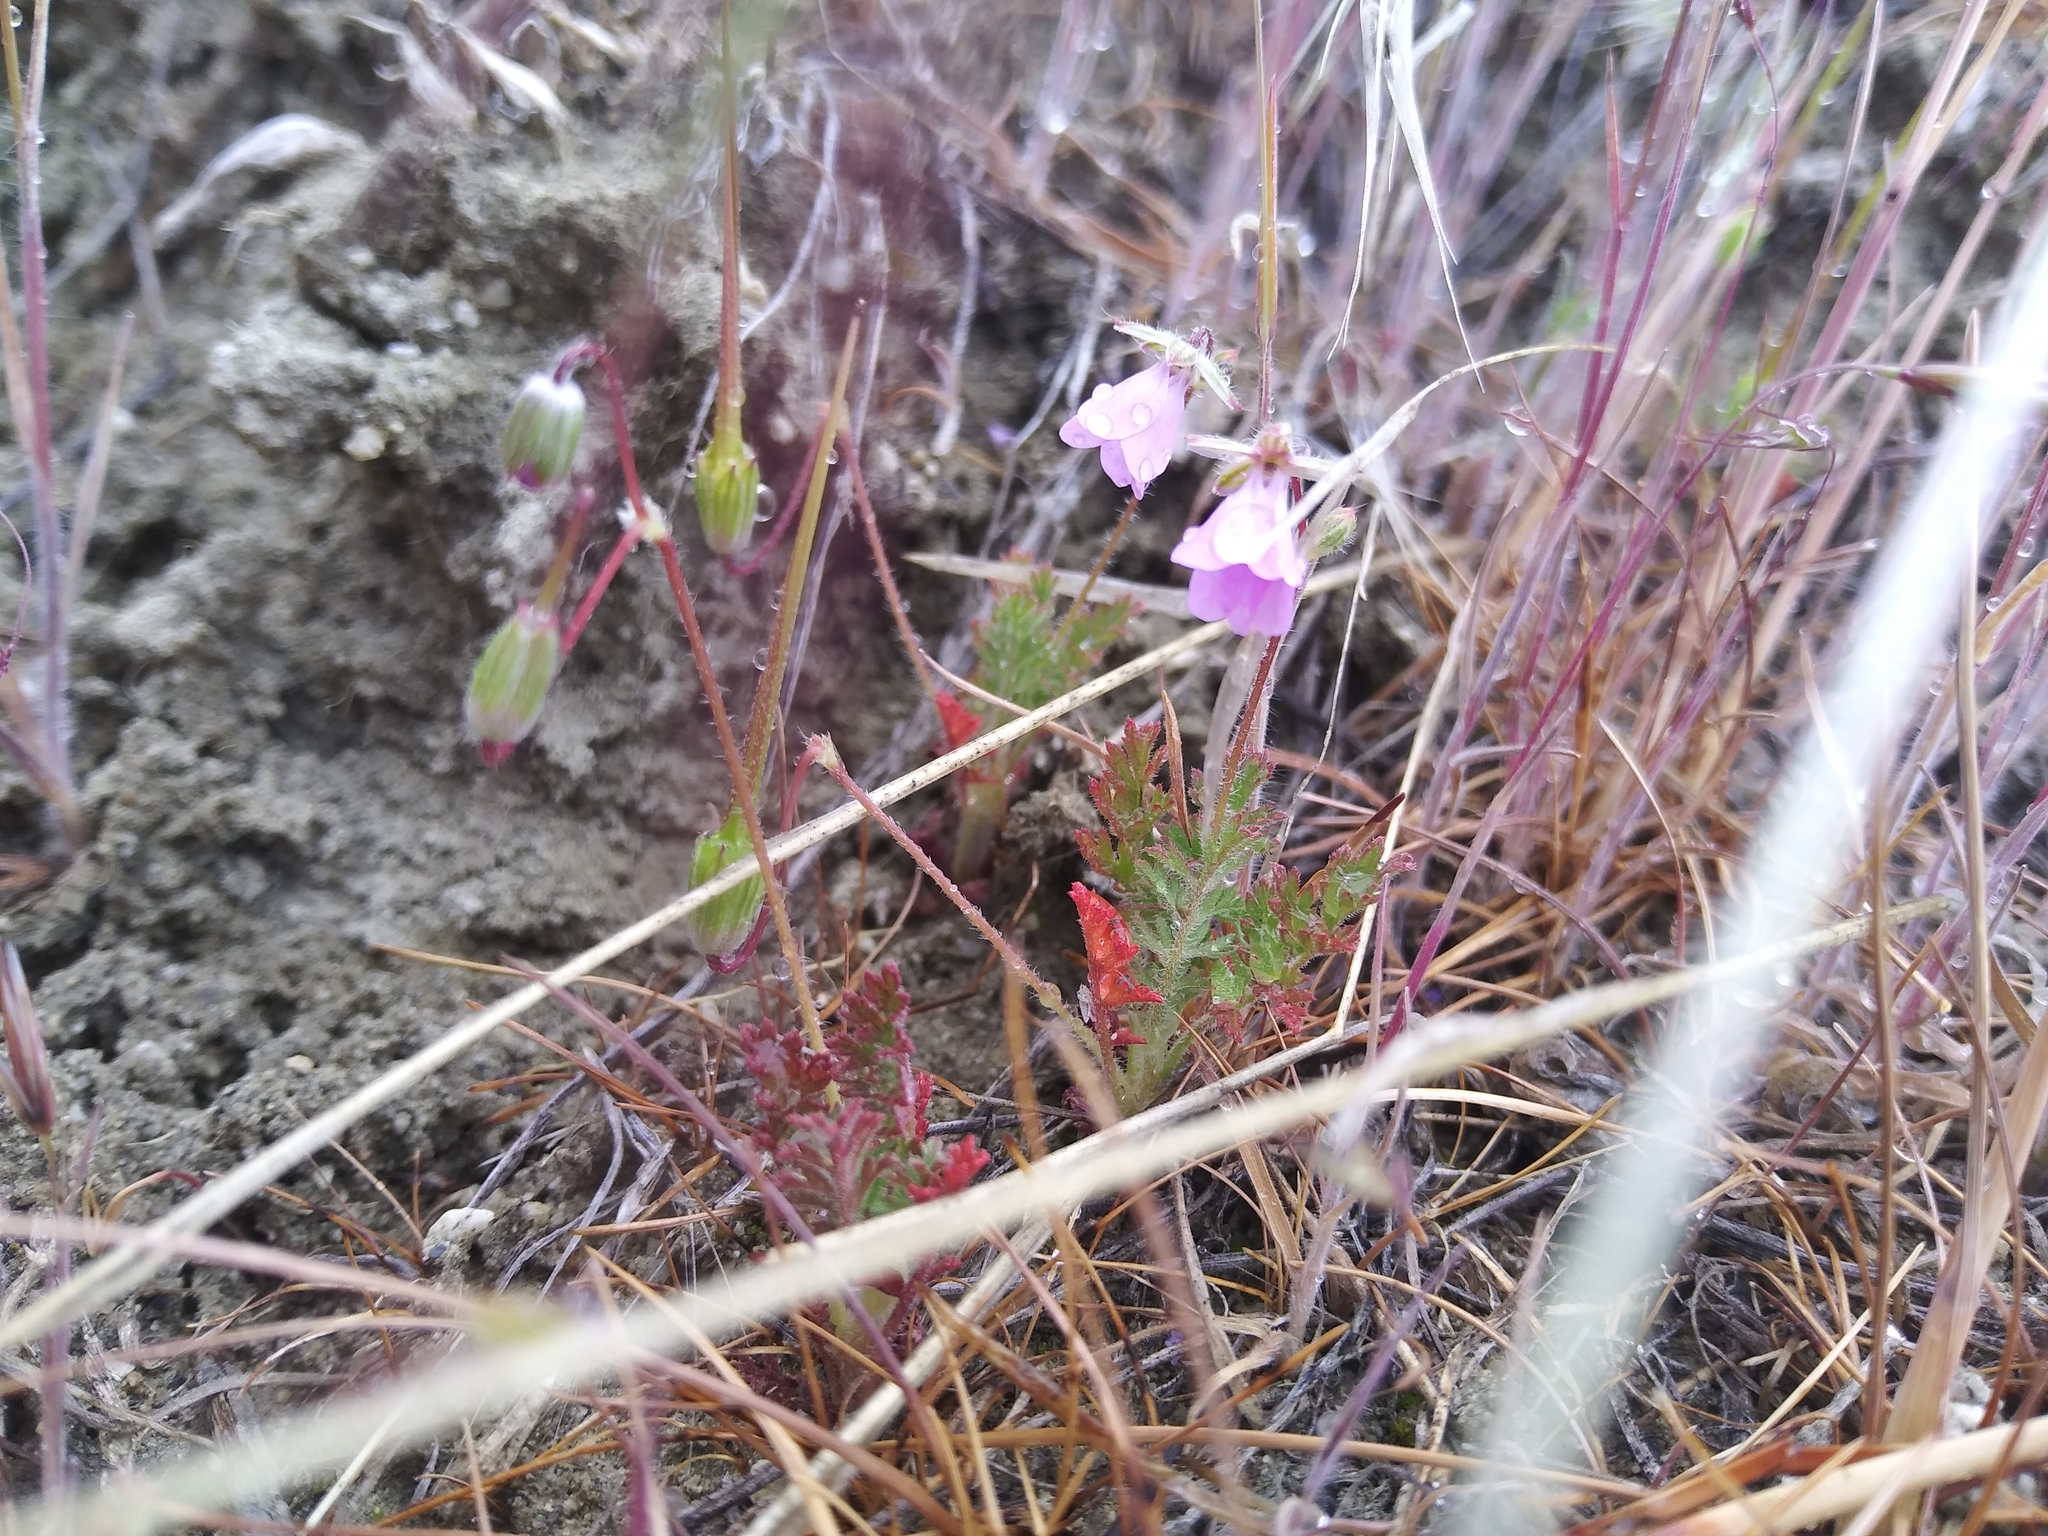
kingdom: Plantae
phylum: Tracheophyta
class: Magnoliopsida
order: Geraniales
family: Geraniaceae
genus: Erodium
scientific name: Erodium cicutarium
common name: Common stork's-bill
